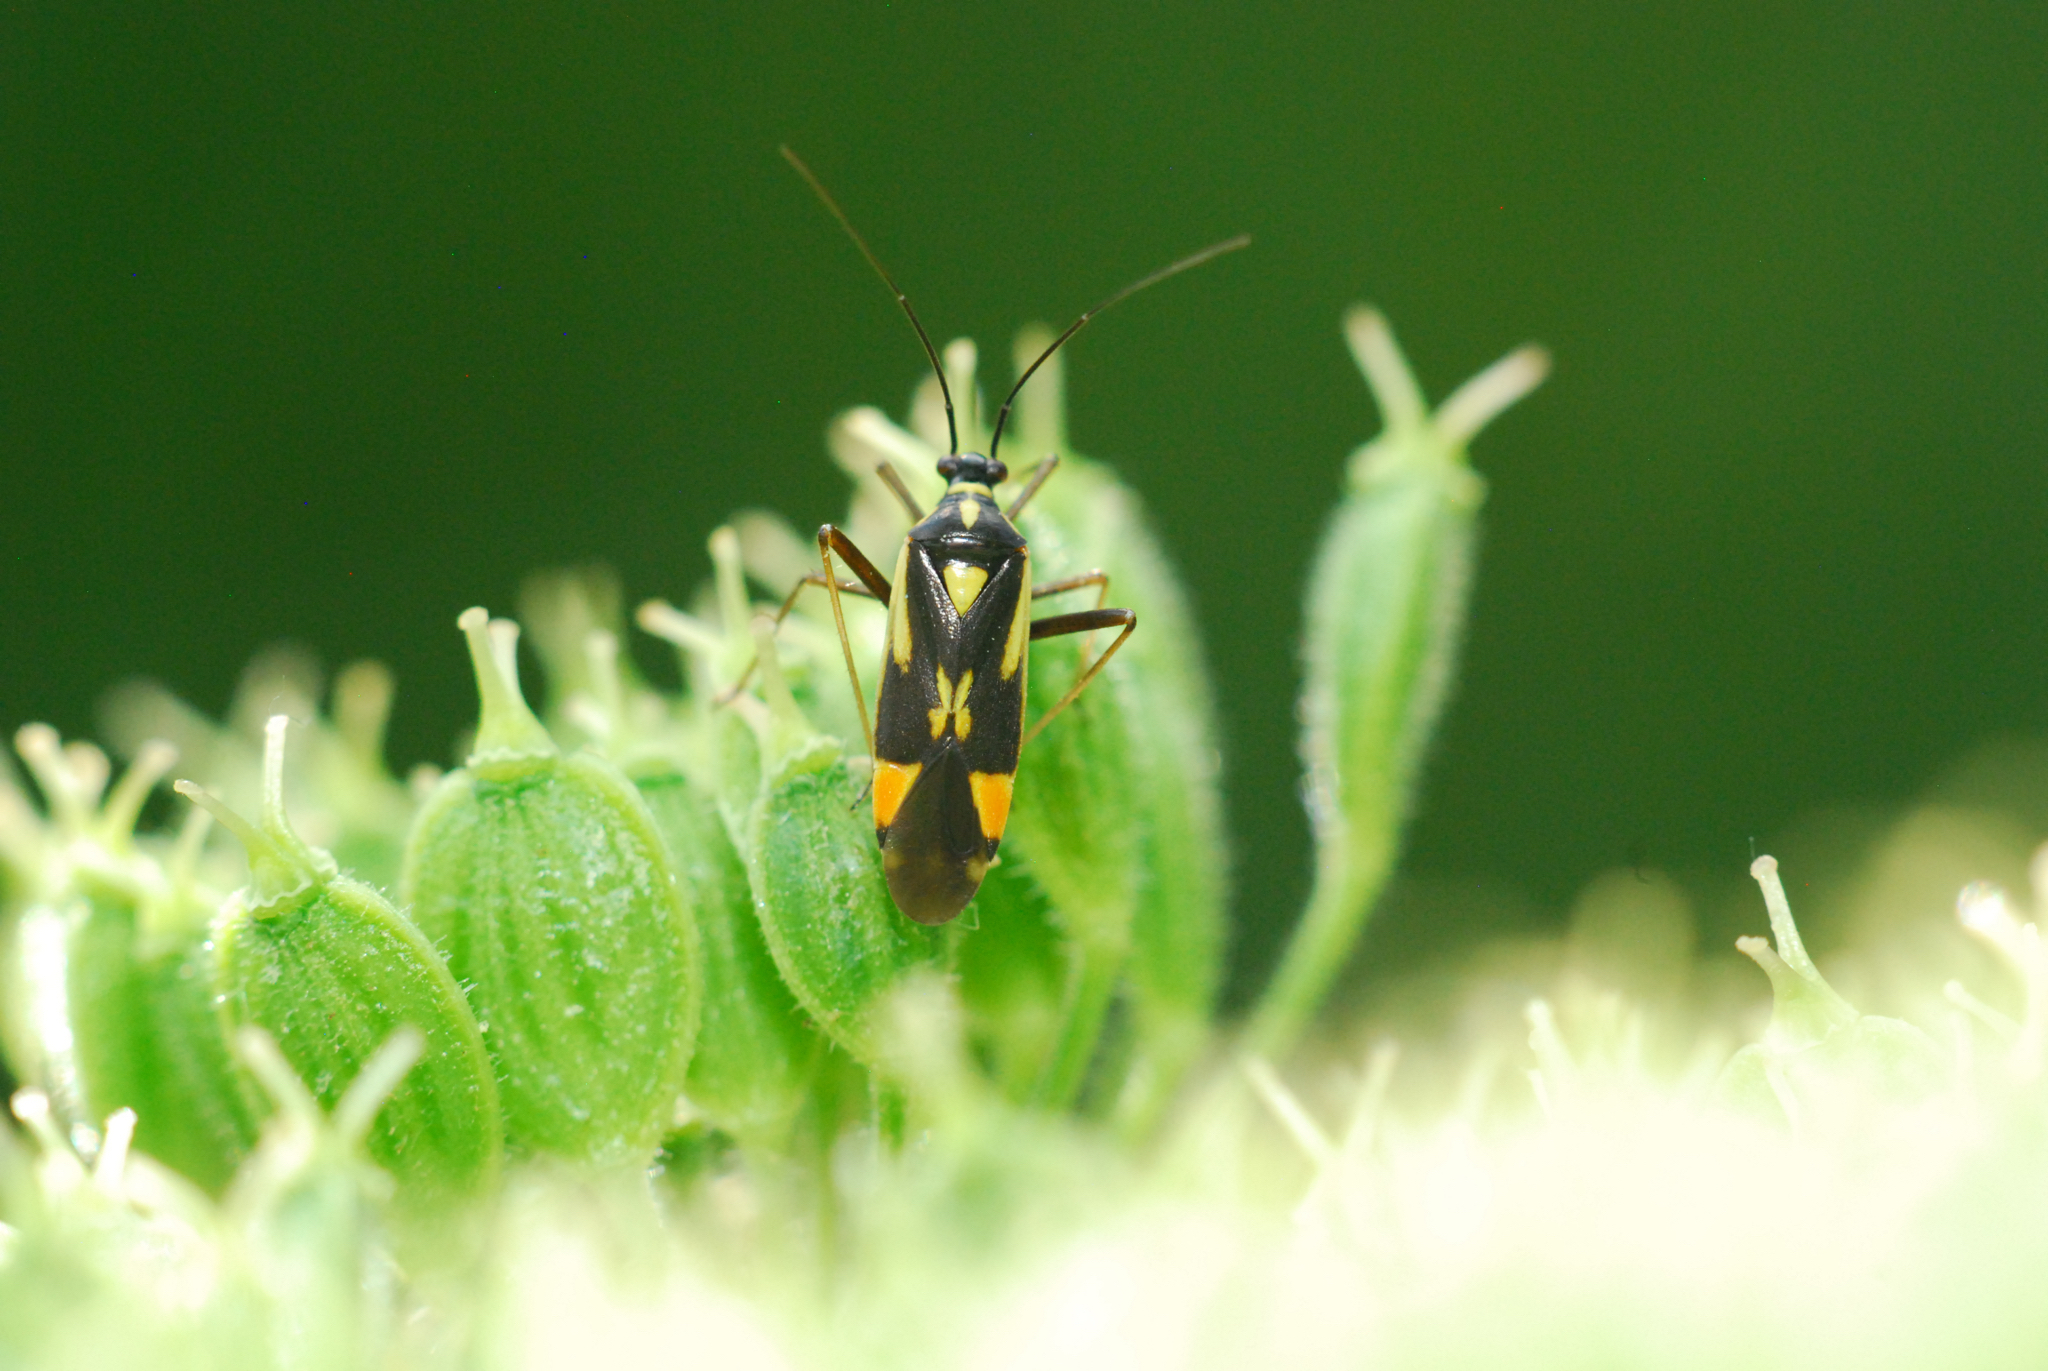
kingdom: Animalia
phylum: Arthropoda
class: Insecta
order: Hemiptera
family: Miridae
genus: Grypocoris
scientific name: Grypocoris stysi
